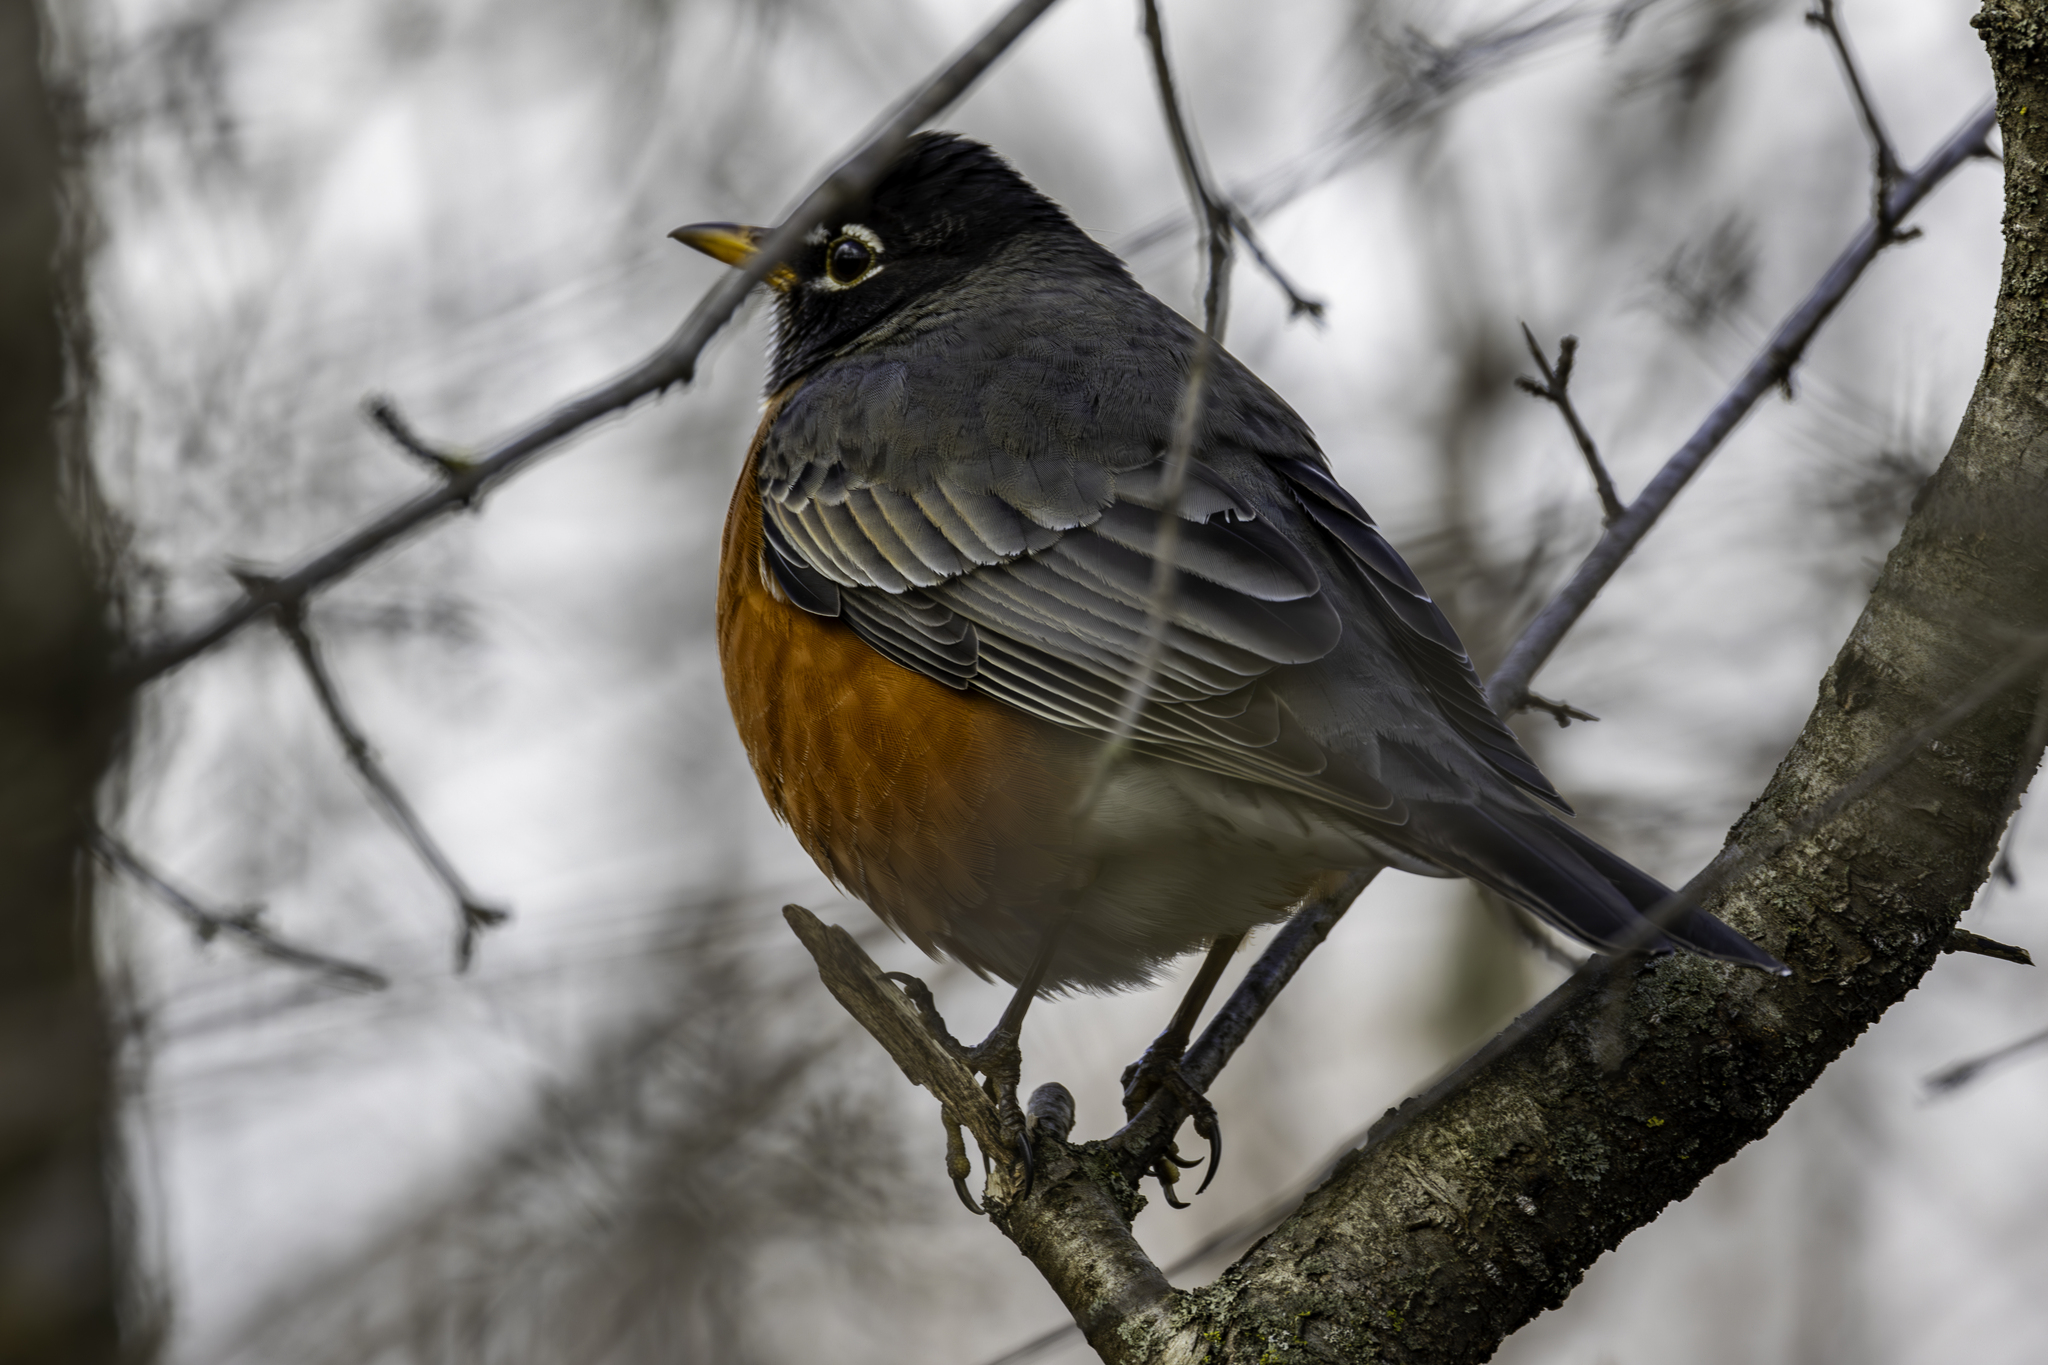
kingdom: Animalia
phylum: Chordata
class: Aves
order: Passeriformes
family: Turdidae
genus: Turdus
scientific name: Turdus migratorius
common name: American robin
